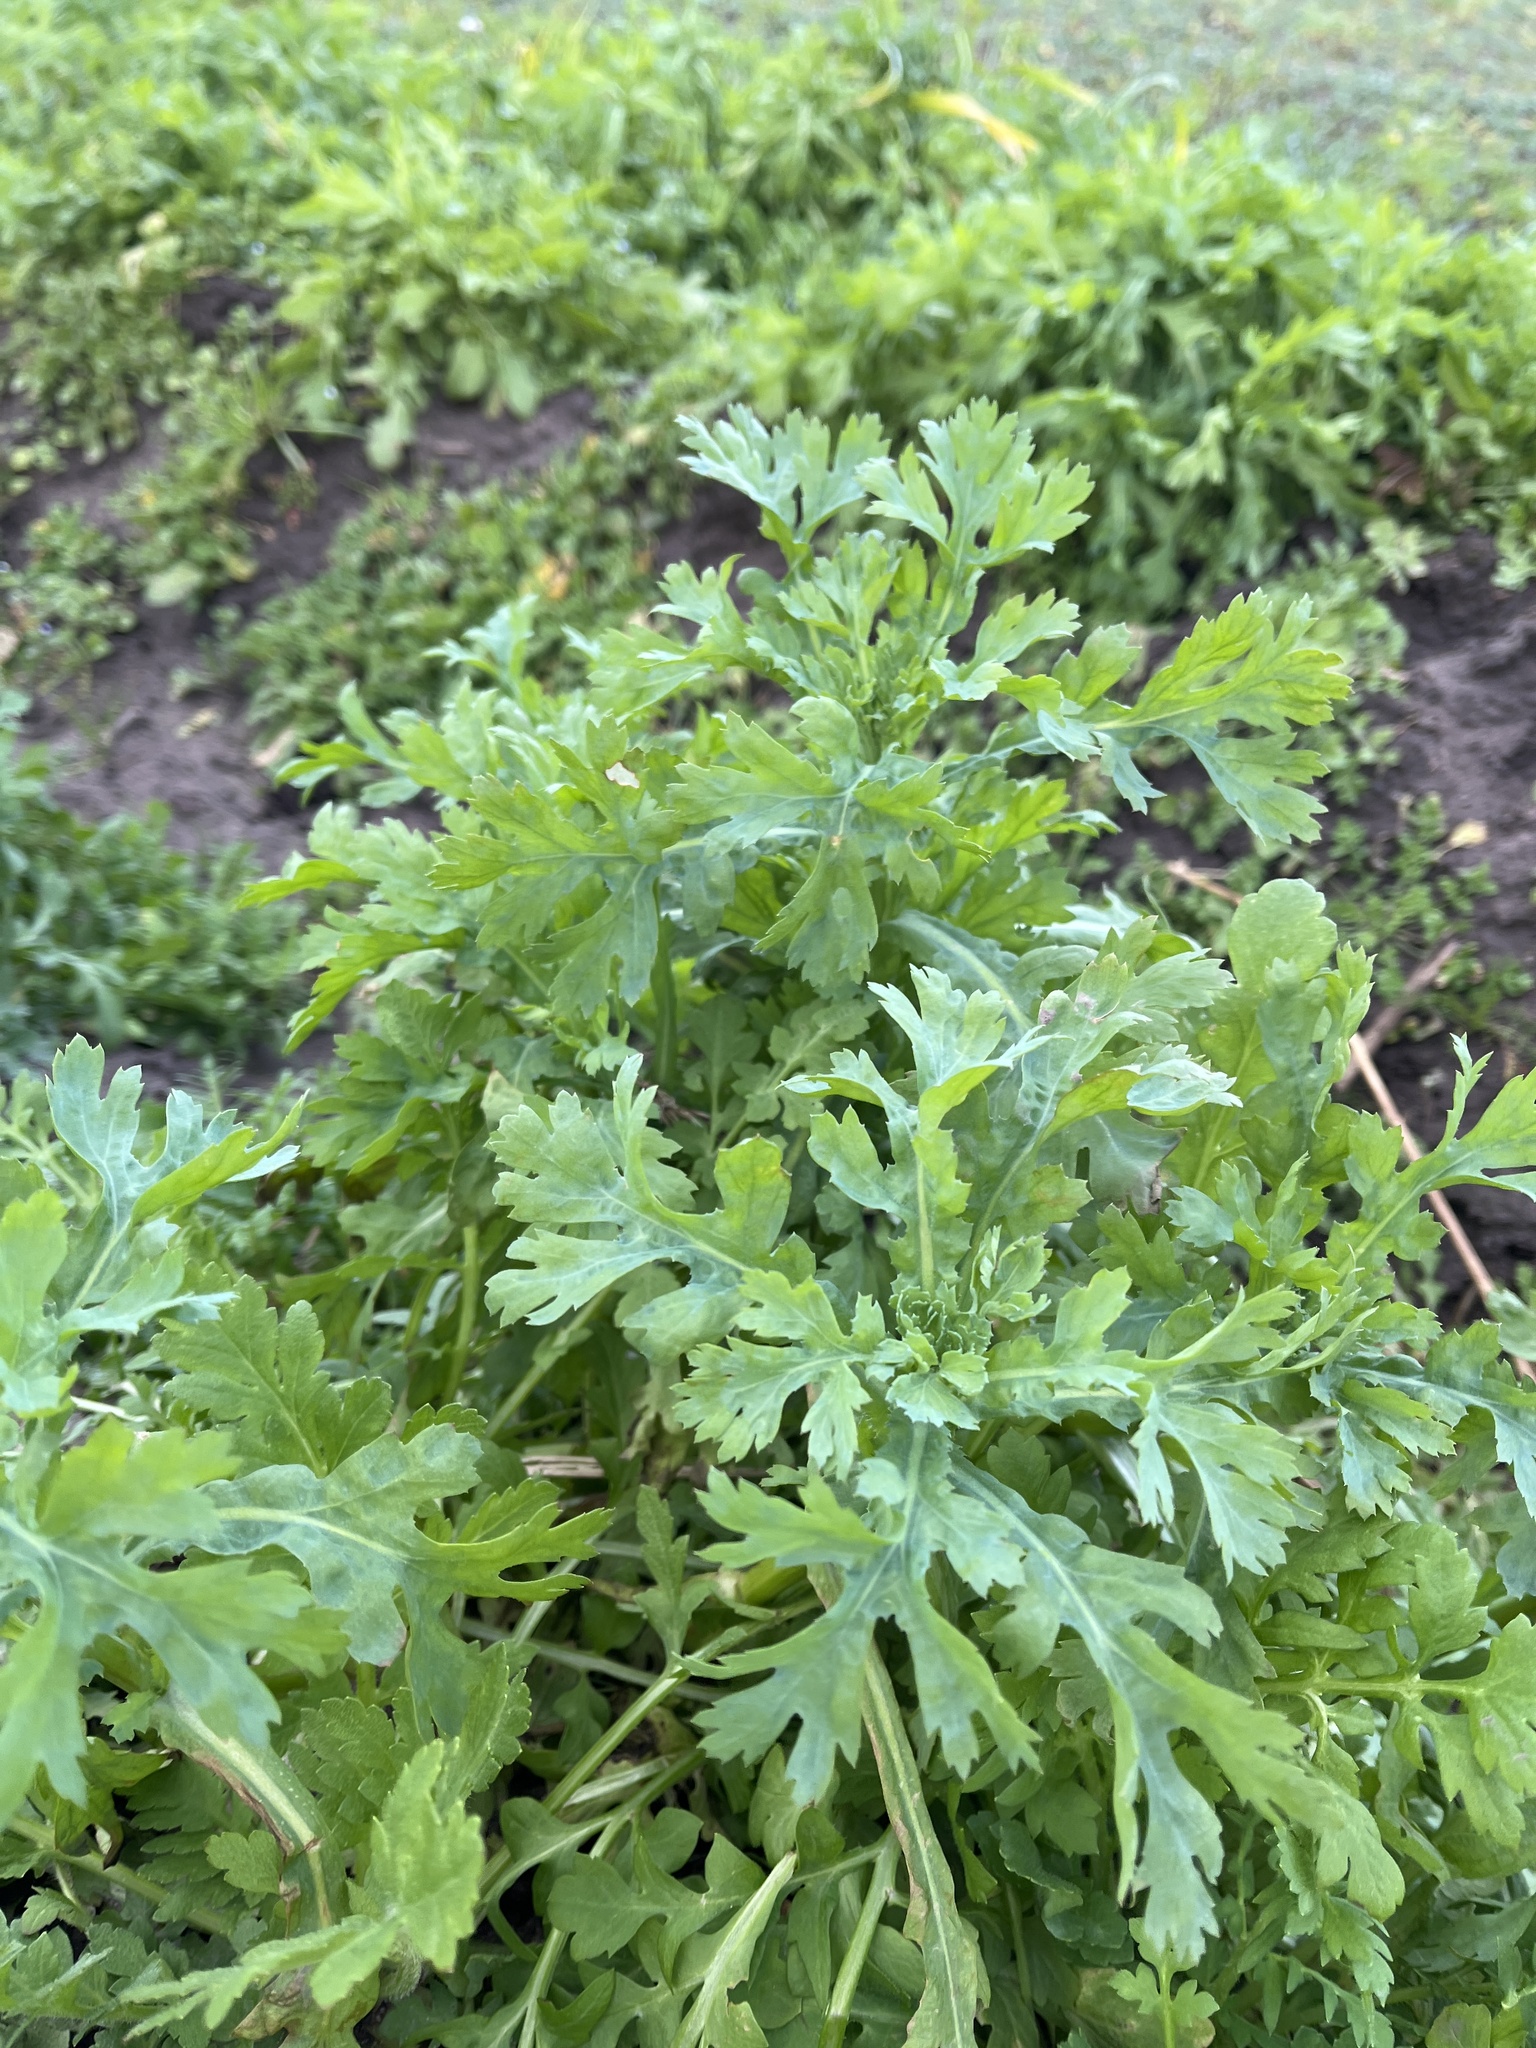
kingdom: Plantae
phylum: Tracheophyta
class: Magnoliopsida
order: Asterales
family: Asteraceae
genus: Glebionis
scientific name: Glebionis segetum
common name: Corndaisy
